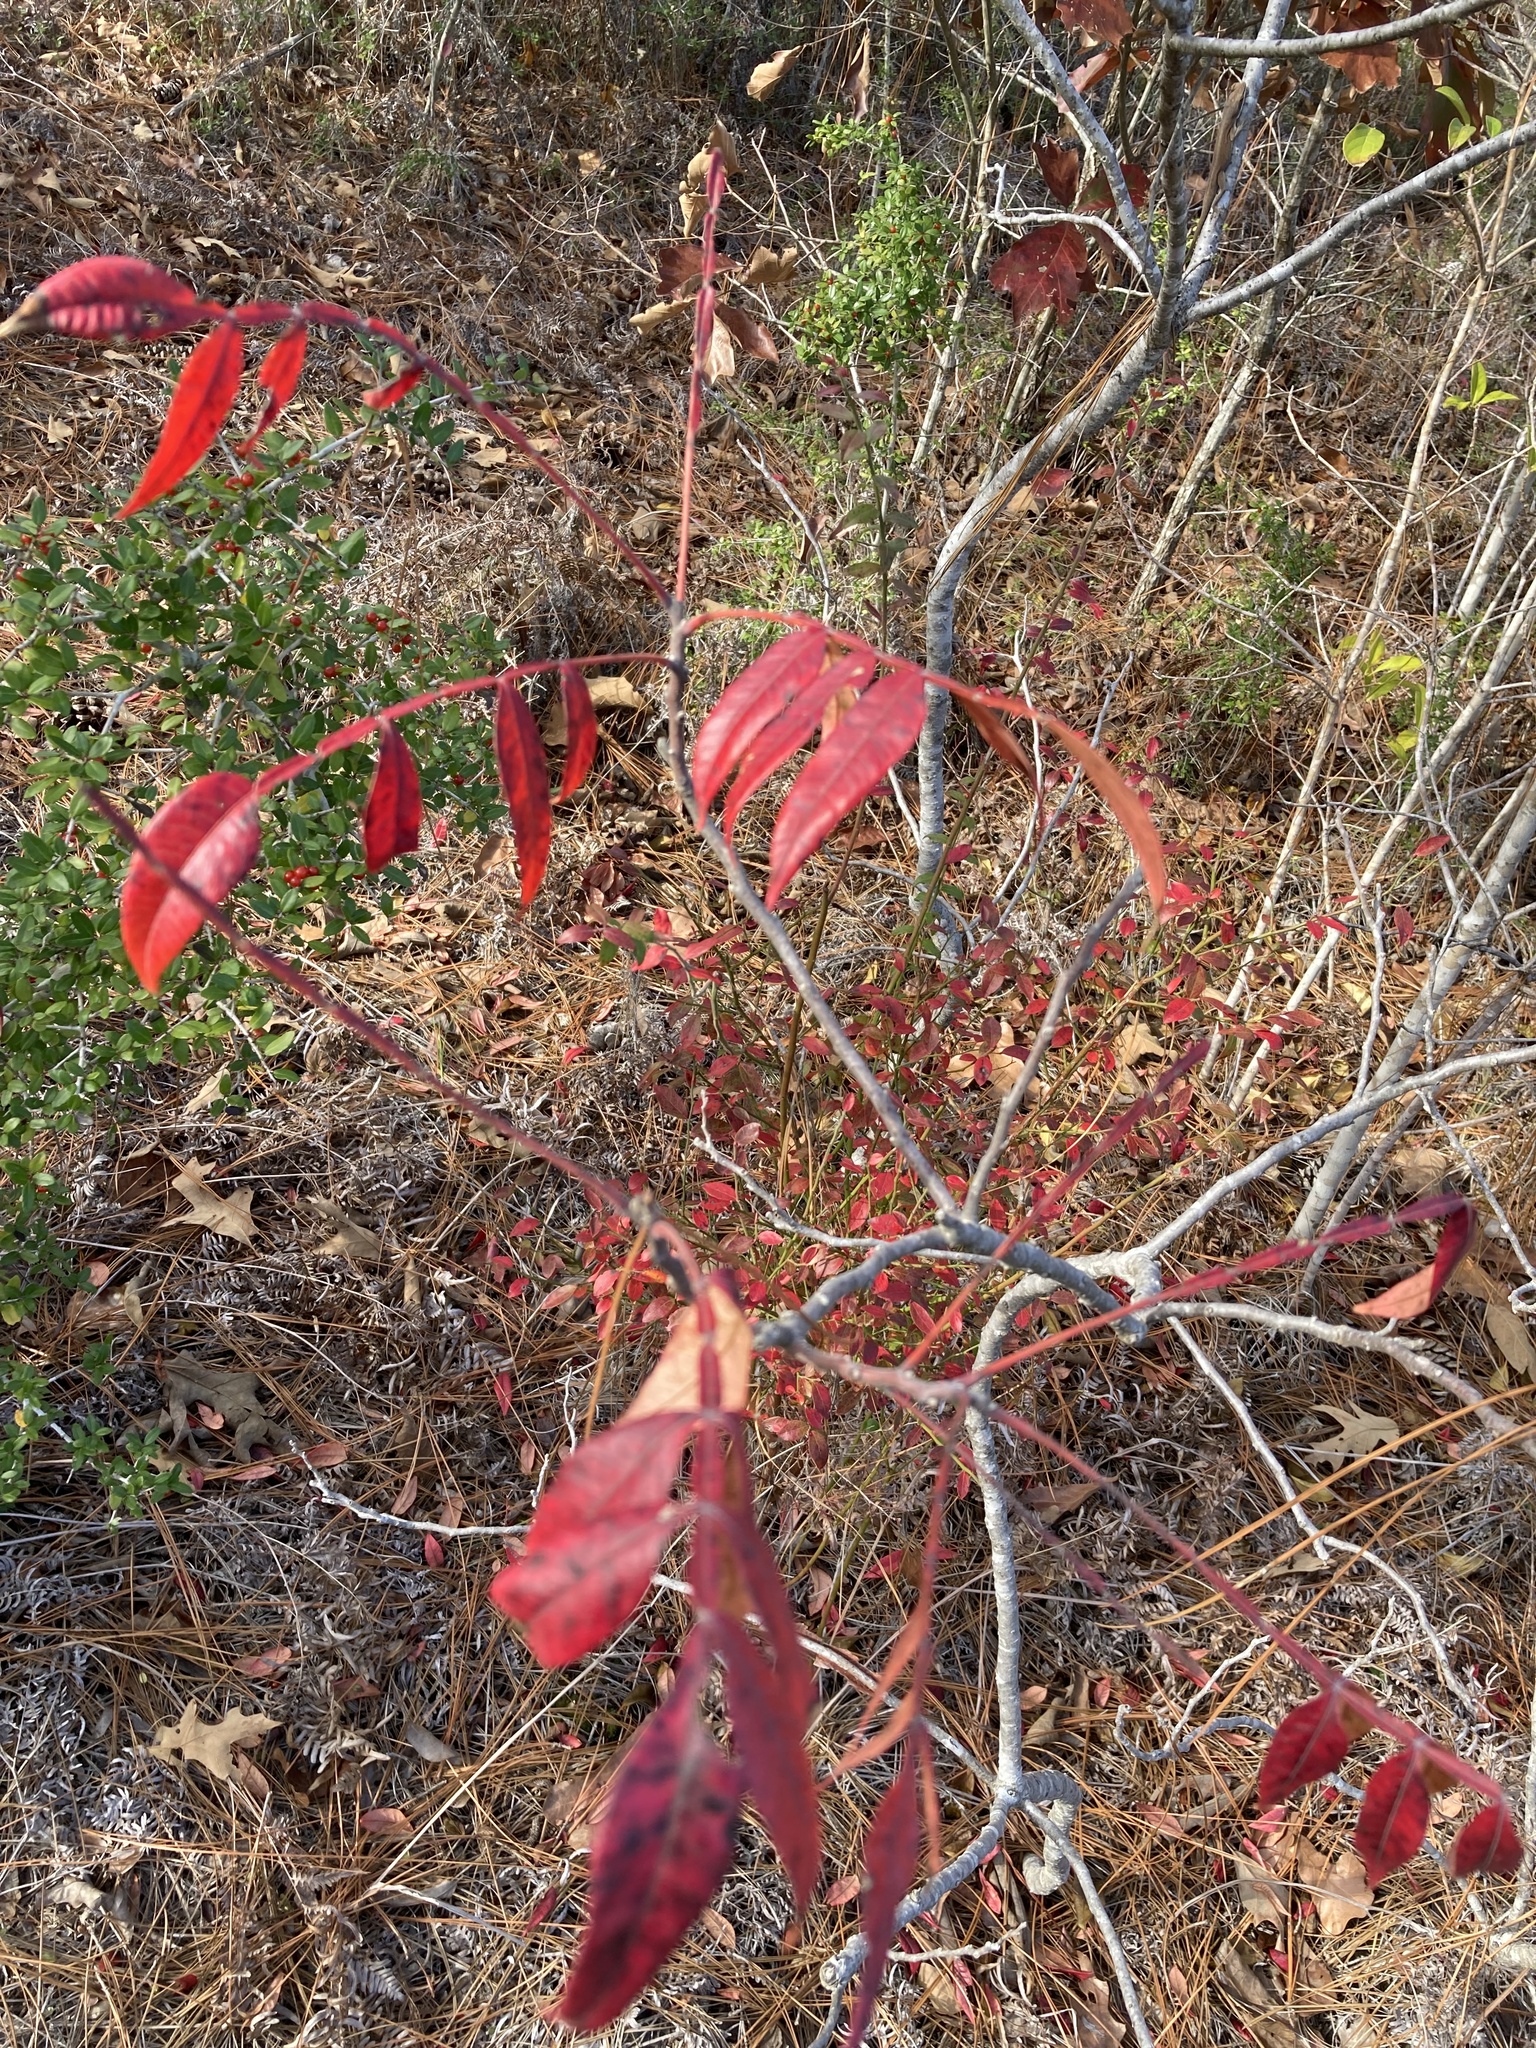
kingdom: Plantae
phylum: Tracheophyta
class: Magnoliopsida
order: Sapindales
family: Anacardiaceae
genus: Rhus
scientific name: Rhus copallina
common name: Shining sumac
